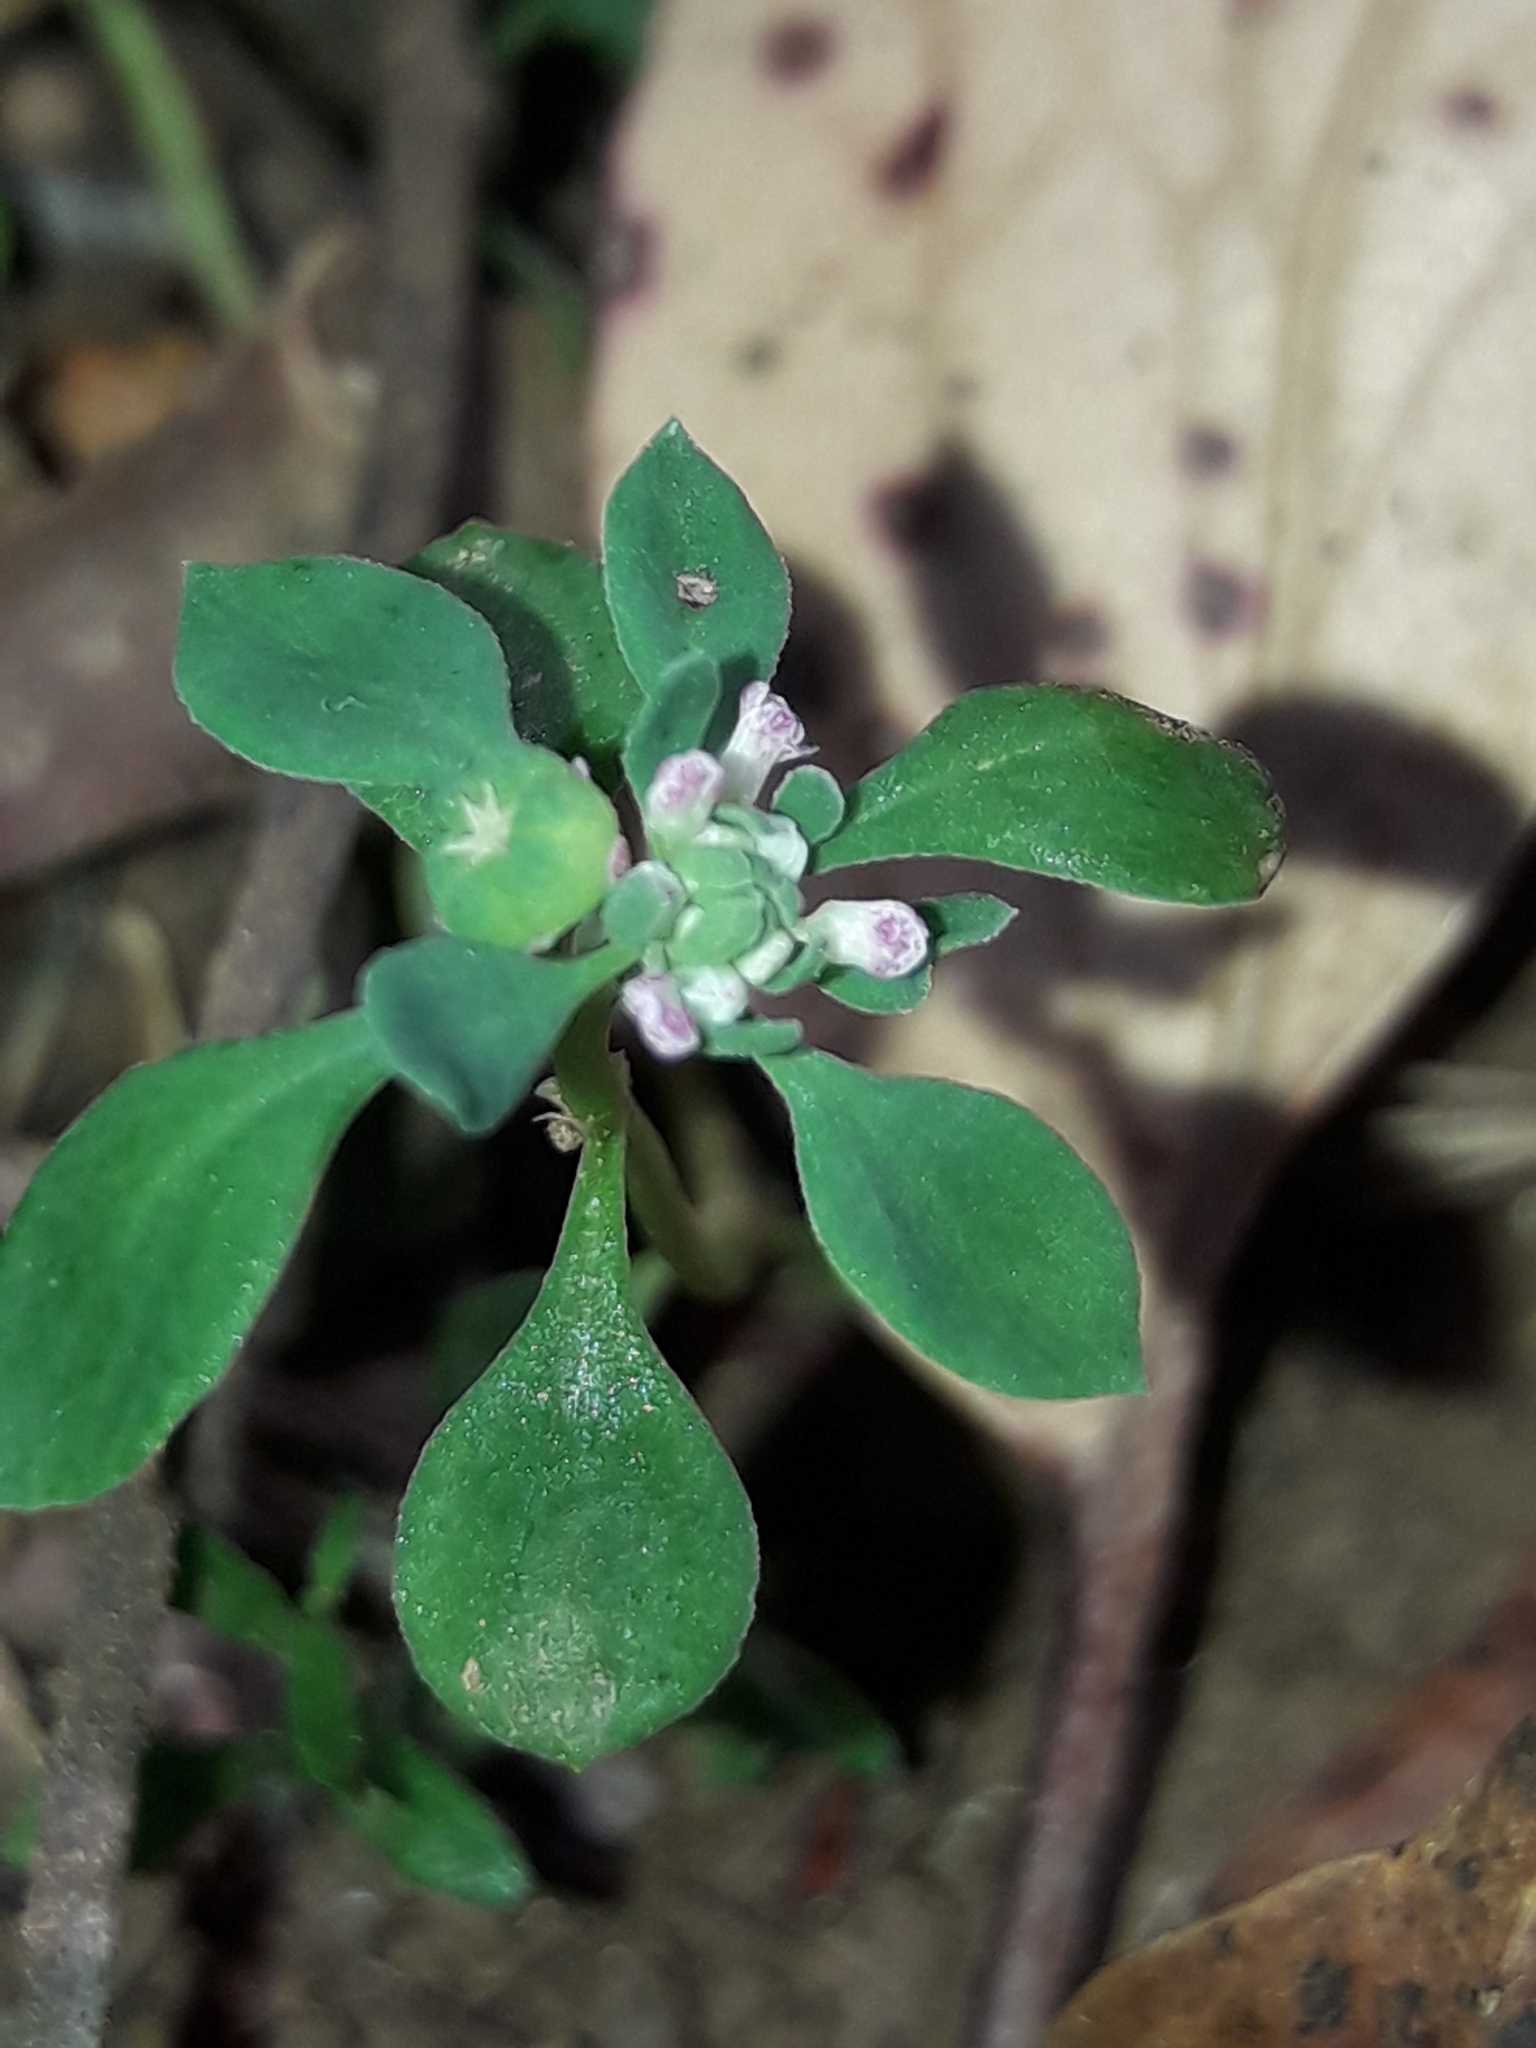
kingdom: Plantae
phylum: Tracheophyta
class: Magnoliopsida
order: Malpighiales
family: Phyllanthaceae
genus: Poranthera
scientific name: Poranthera microphylla
